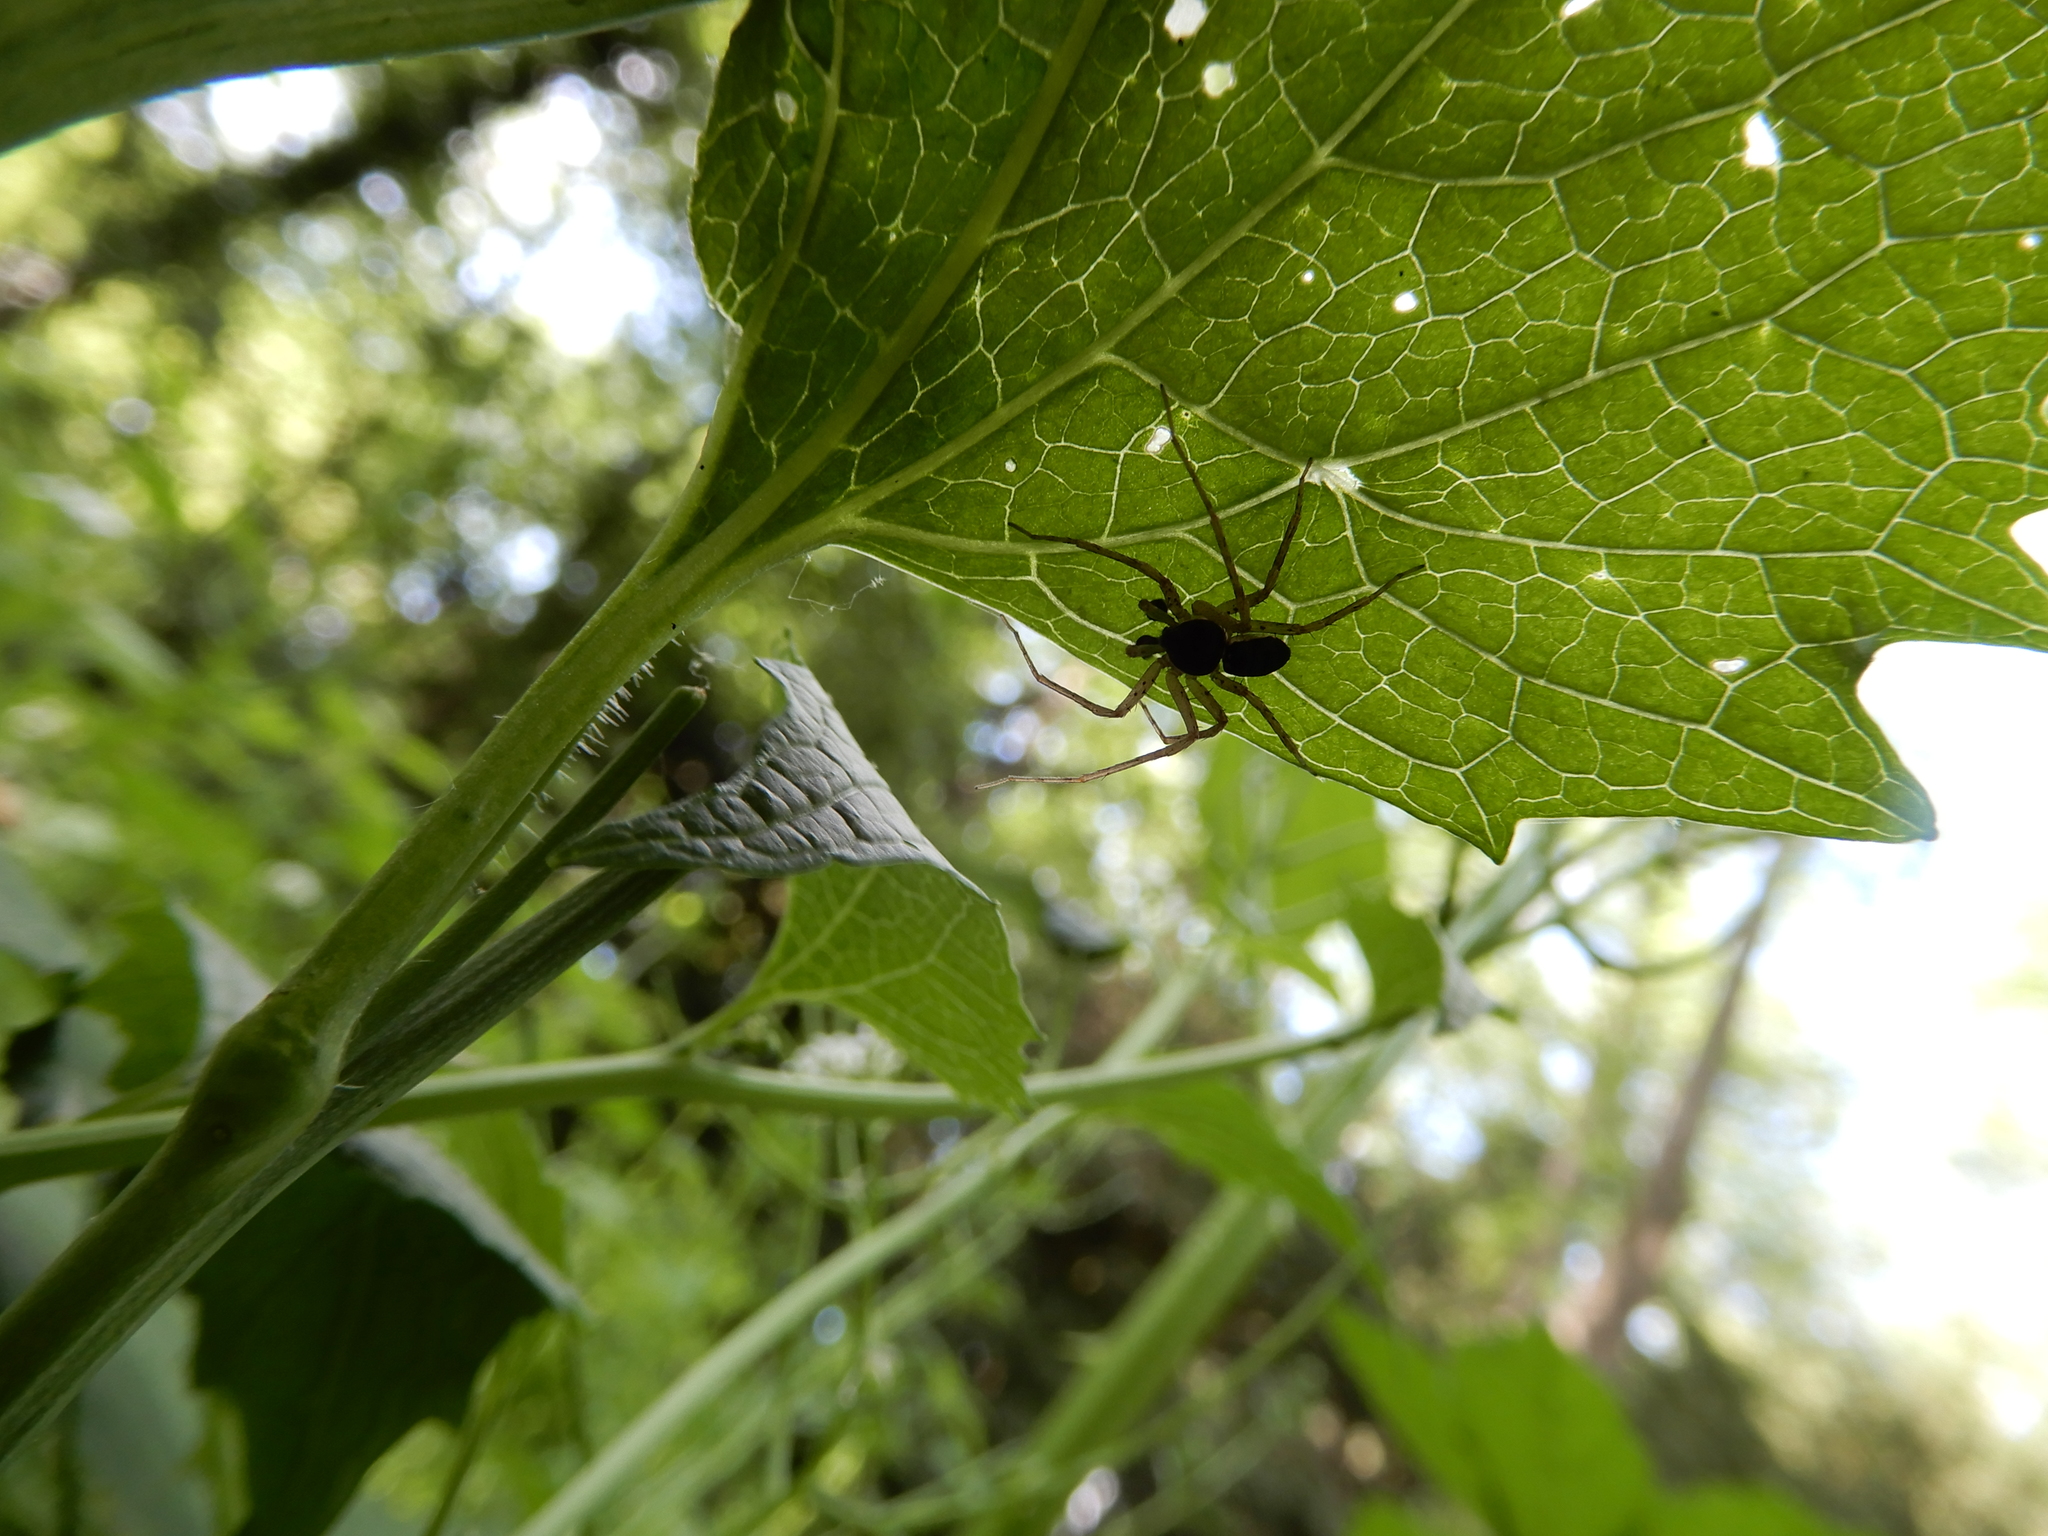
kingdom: Animalia
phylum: Arthropoda
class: Arachnida
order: Araneae
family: Philodromidae
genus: Philodromus
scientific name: Philodromus dispar
